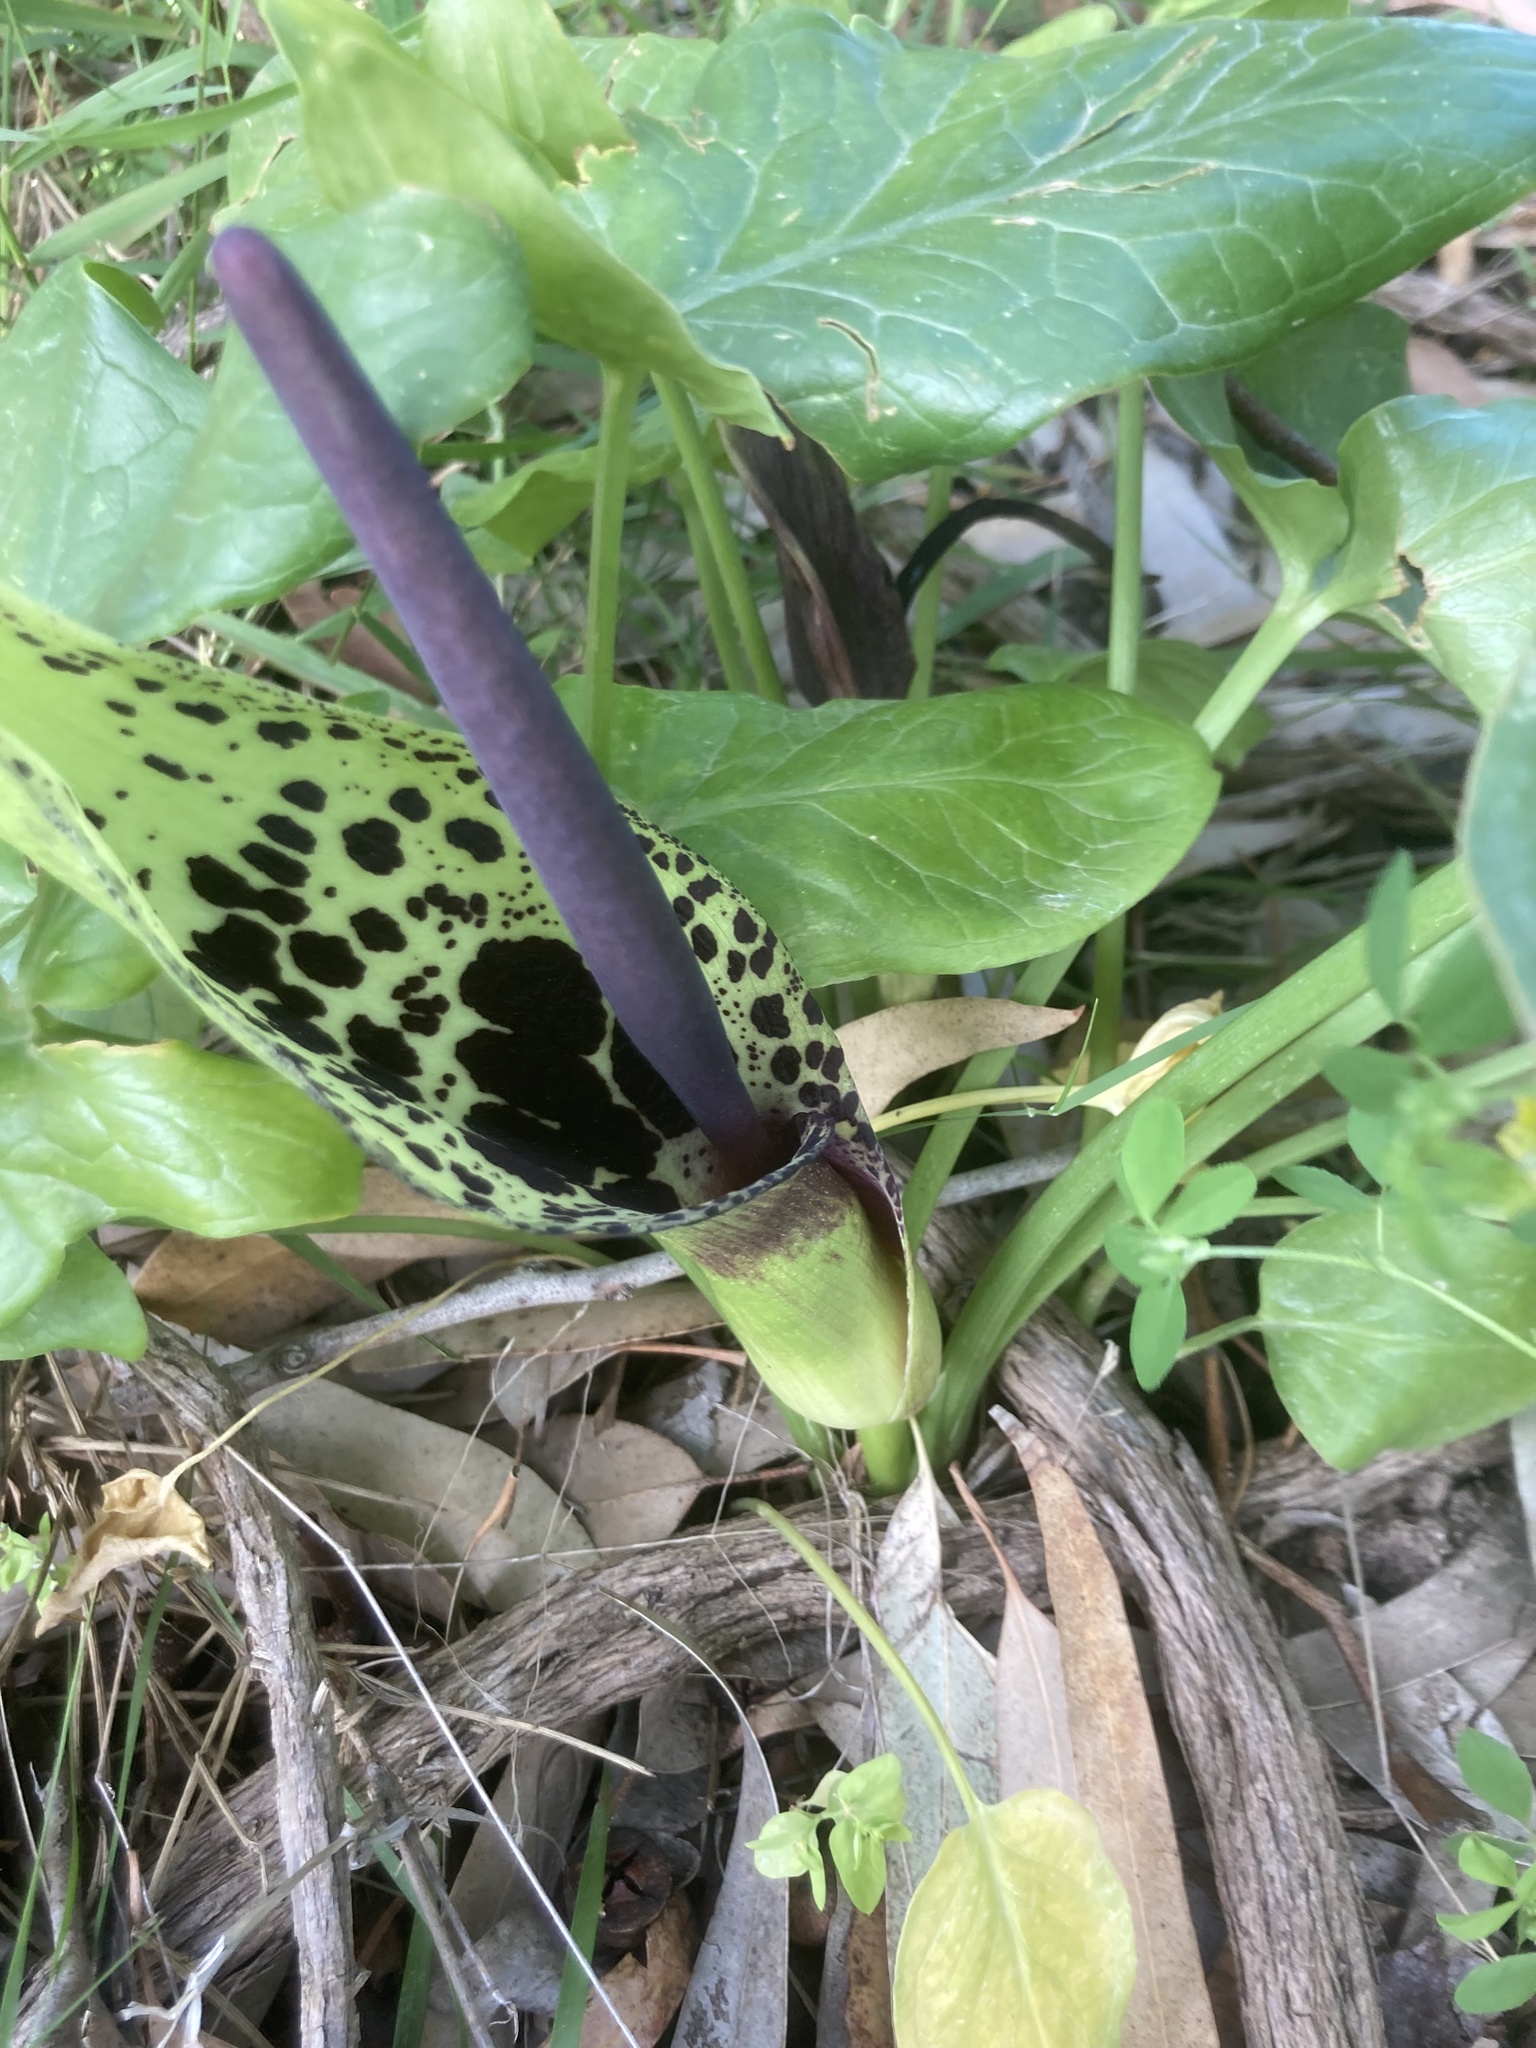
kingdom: Plantae
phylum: Tracheophyta
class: Liliopsida
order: Alismatales
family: Araceae
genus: Arum
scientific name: Arum dioscoridis
